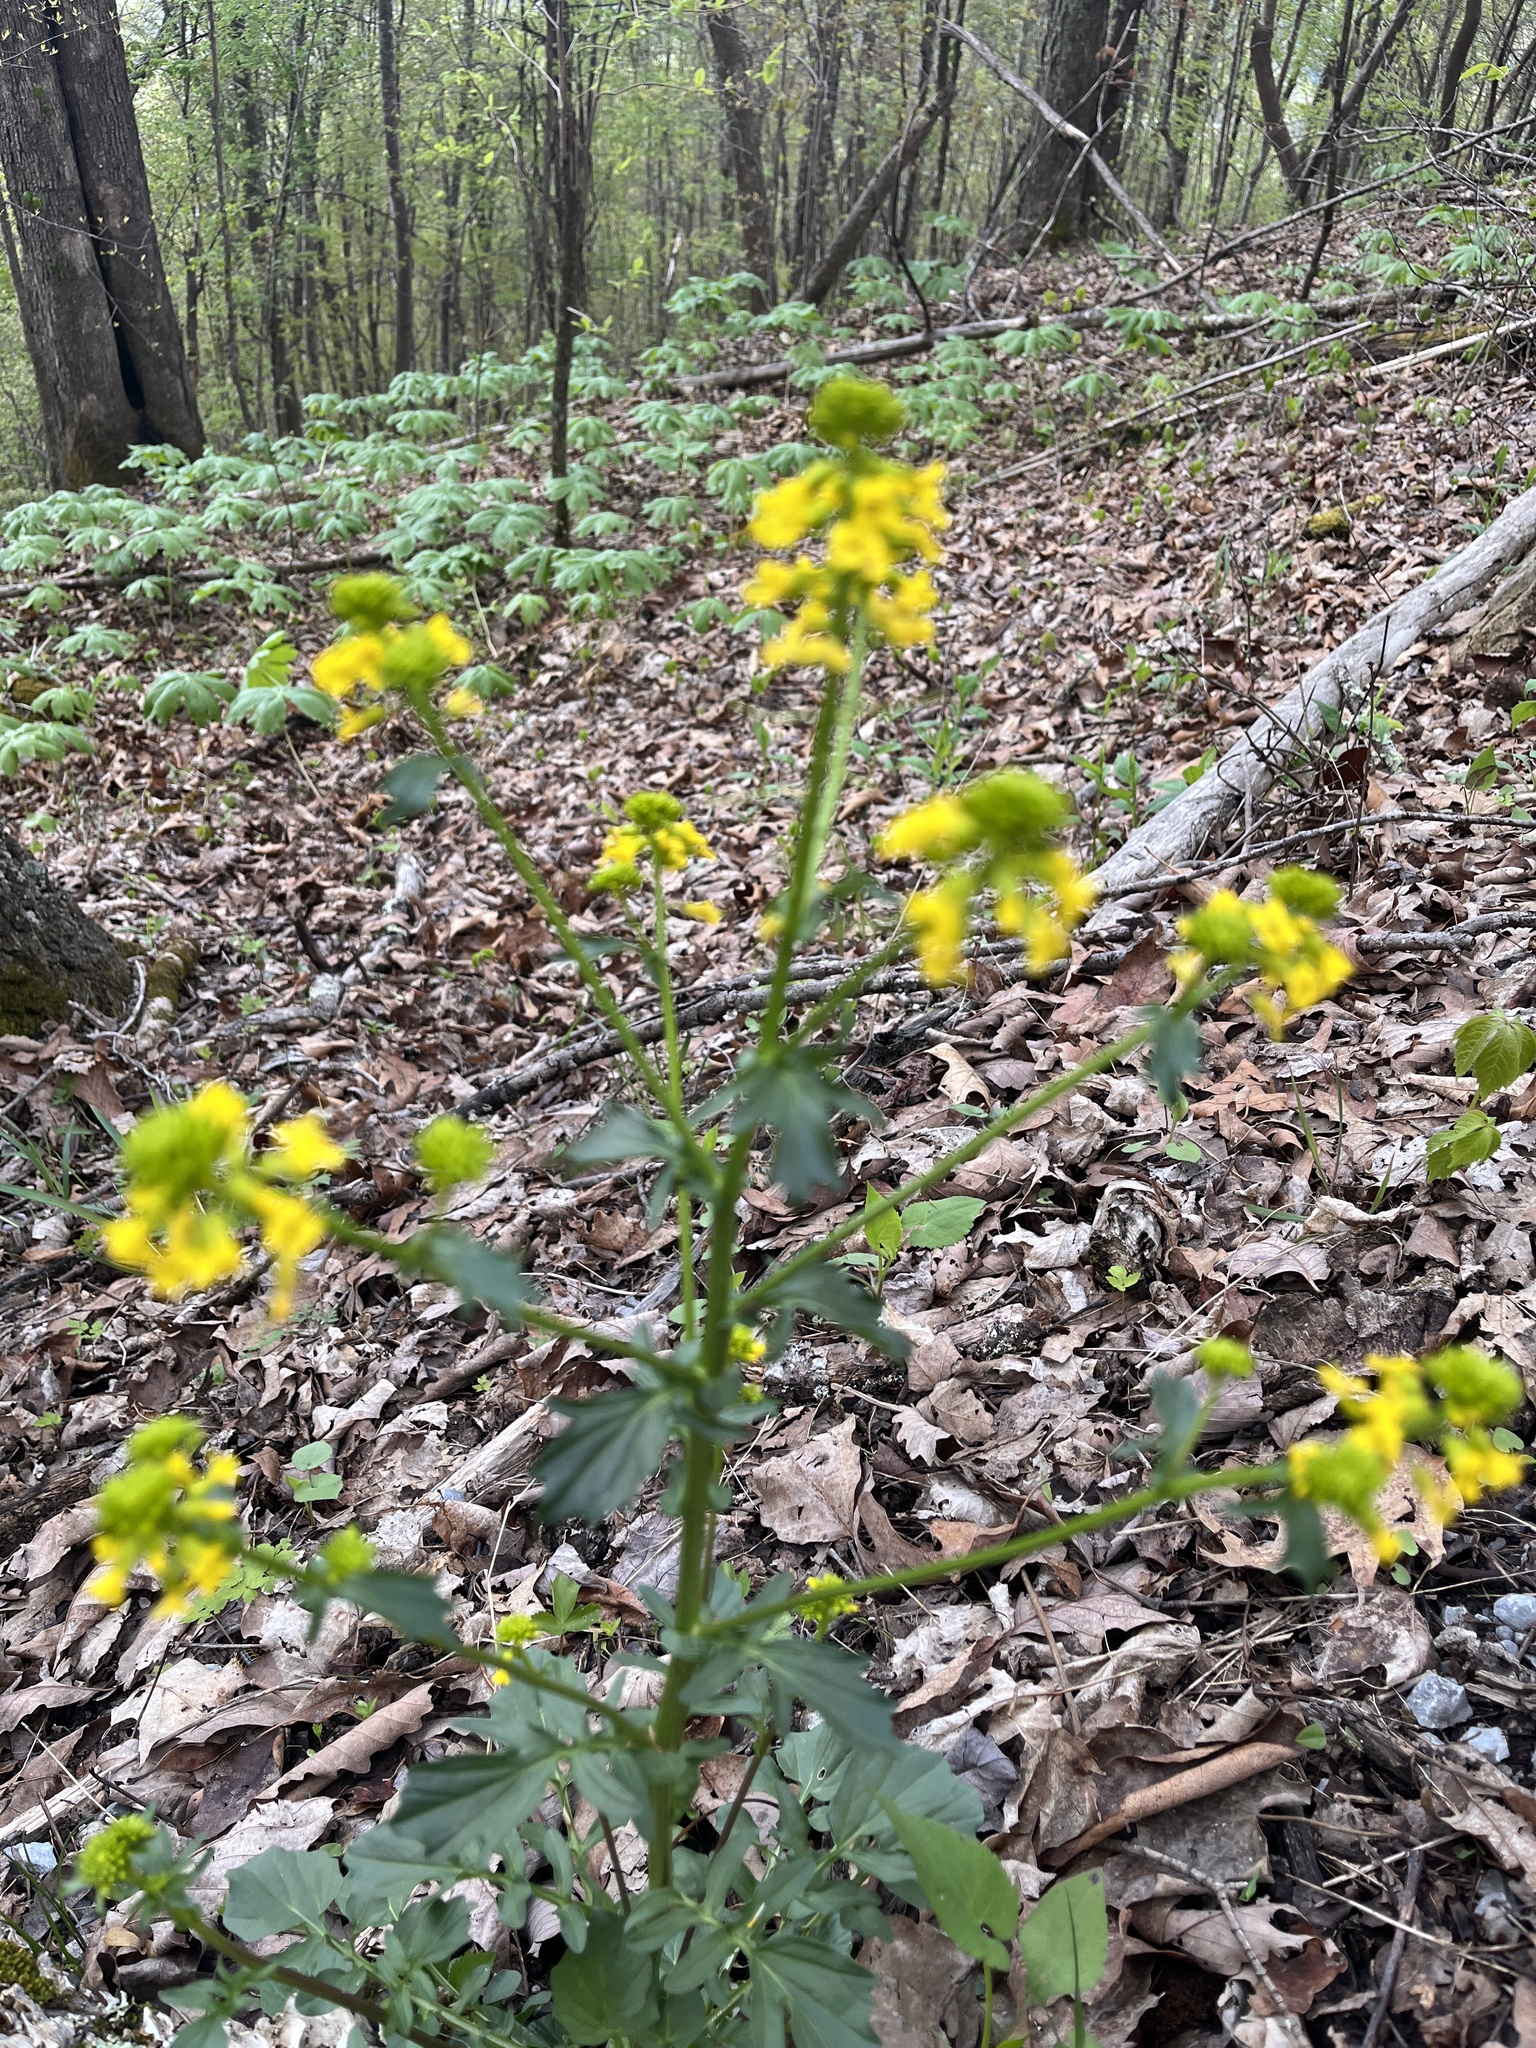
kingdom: Plantae
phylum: Tracheophyta
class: Magnoliopsida
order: Brassicales
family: Brassicaceae
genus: Barbarea
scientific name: Barbarea vulgaris
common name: Cressy-greens
